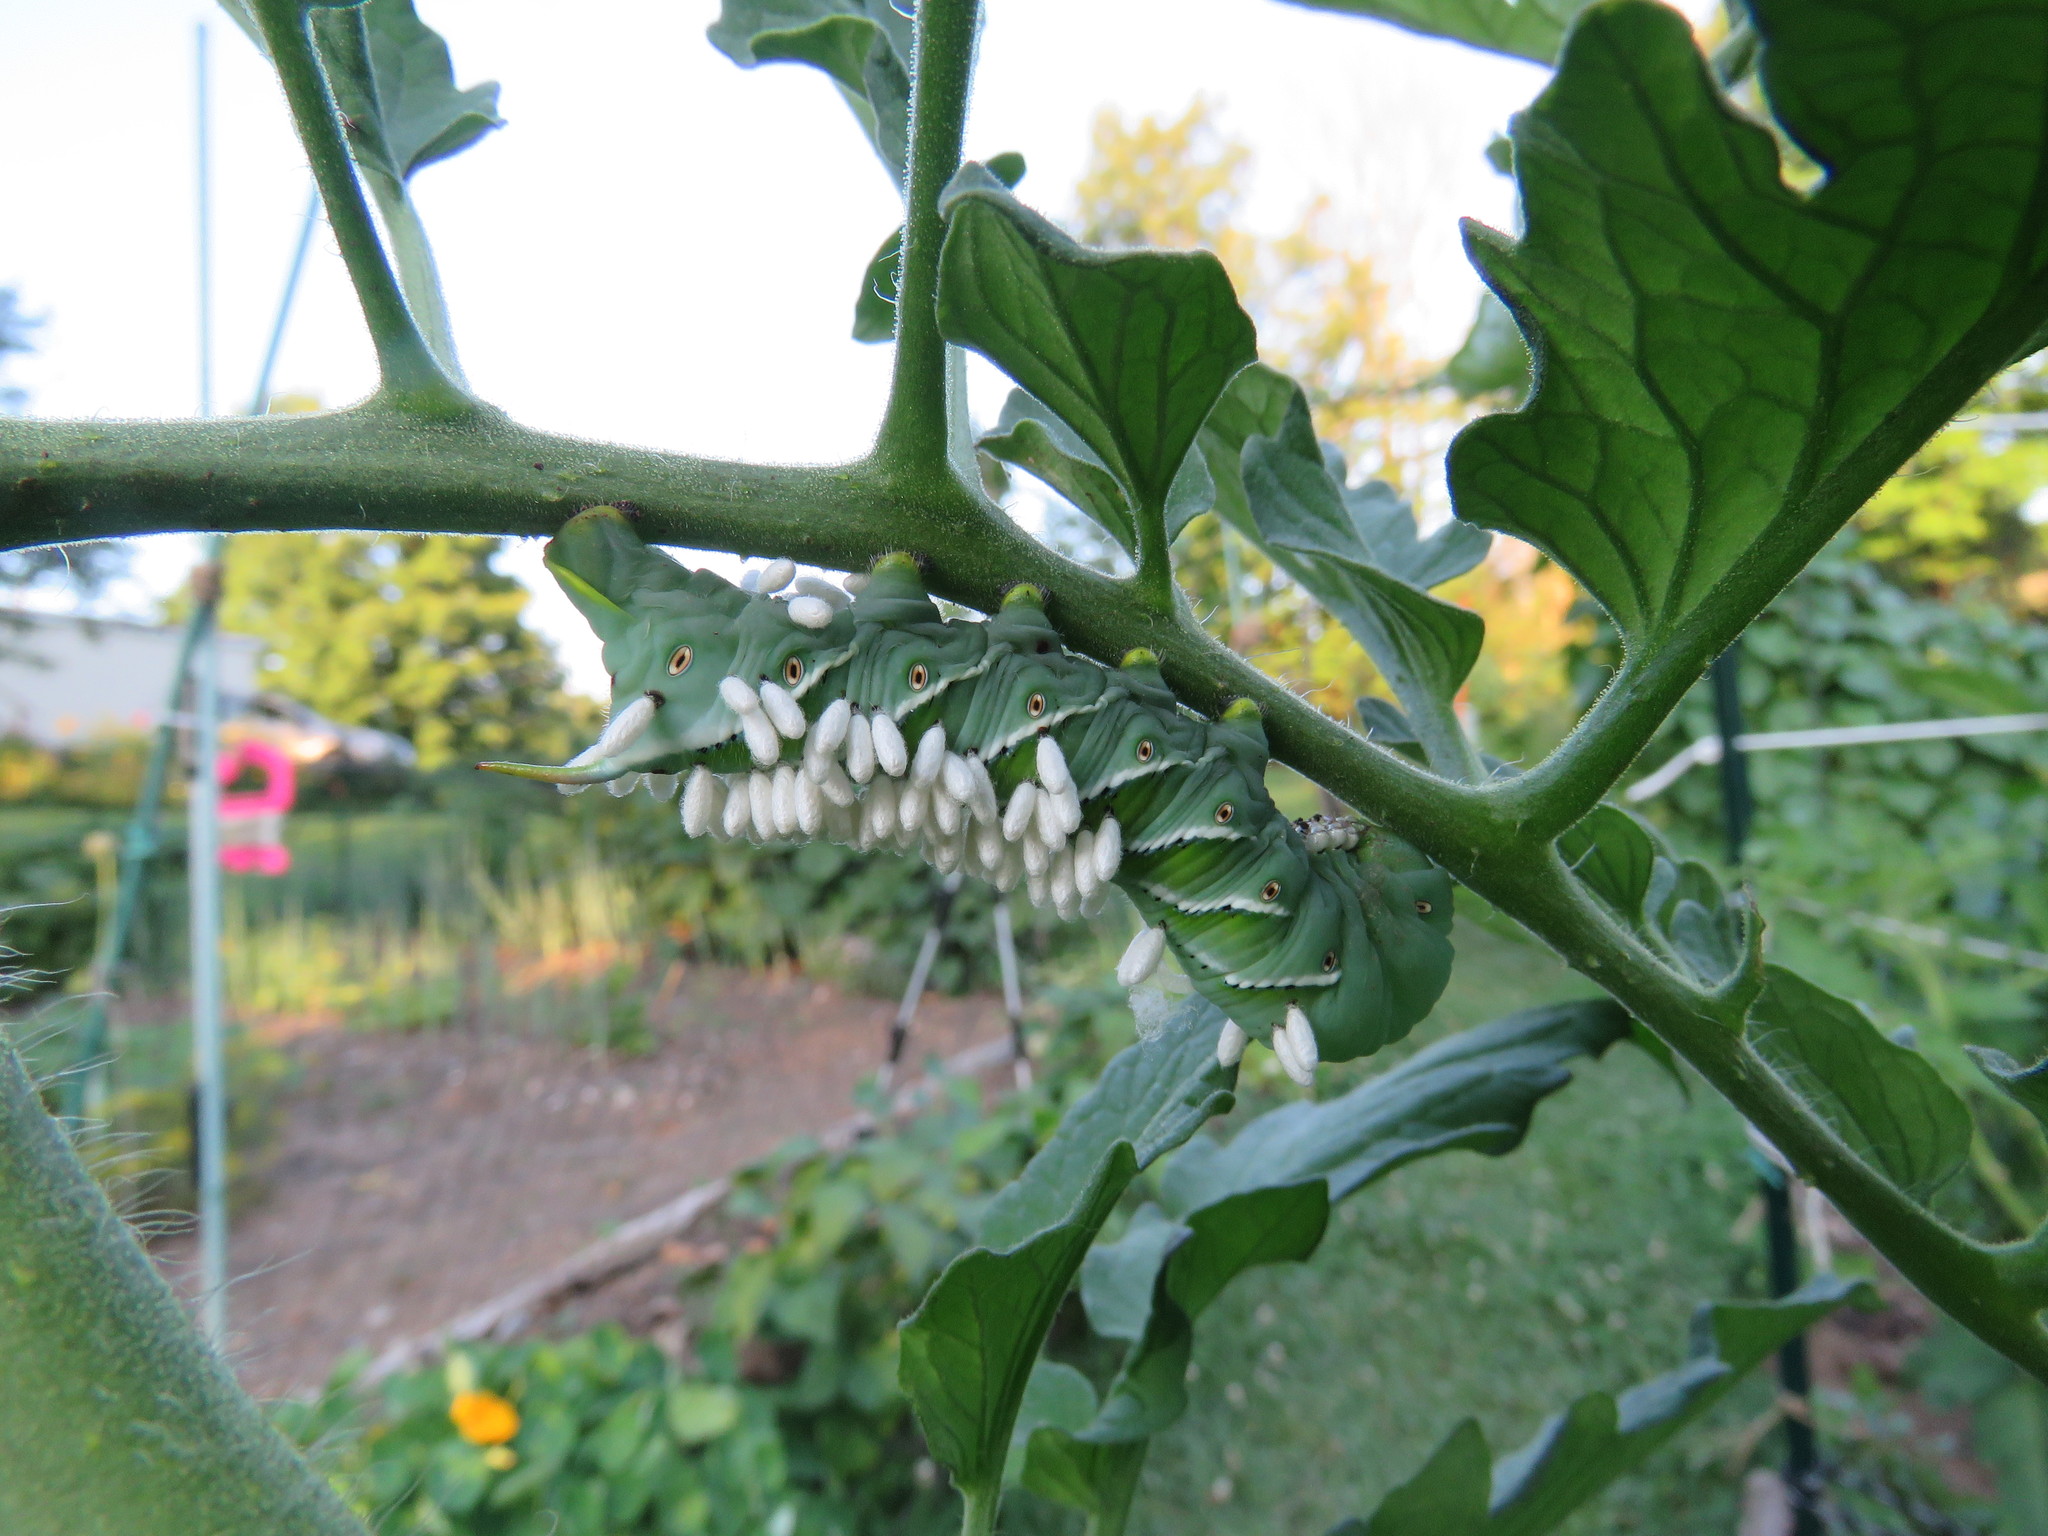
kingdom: Animalia
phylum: Arthropoda
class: Insecta
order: Hymenoptera
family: Braconidae
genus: Cotesia
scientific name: Cotesia congregata
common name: Hornworm parasitoid wasp
